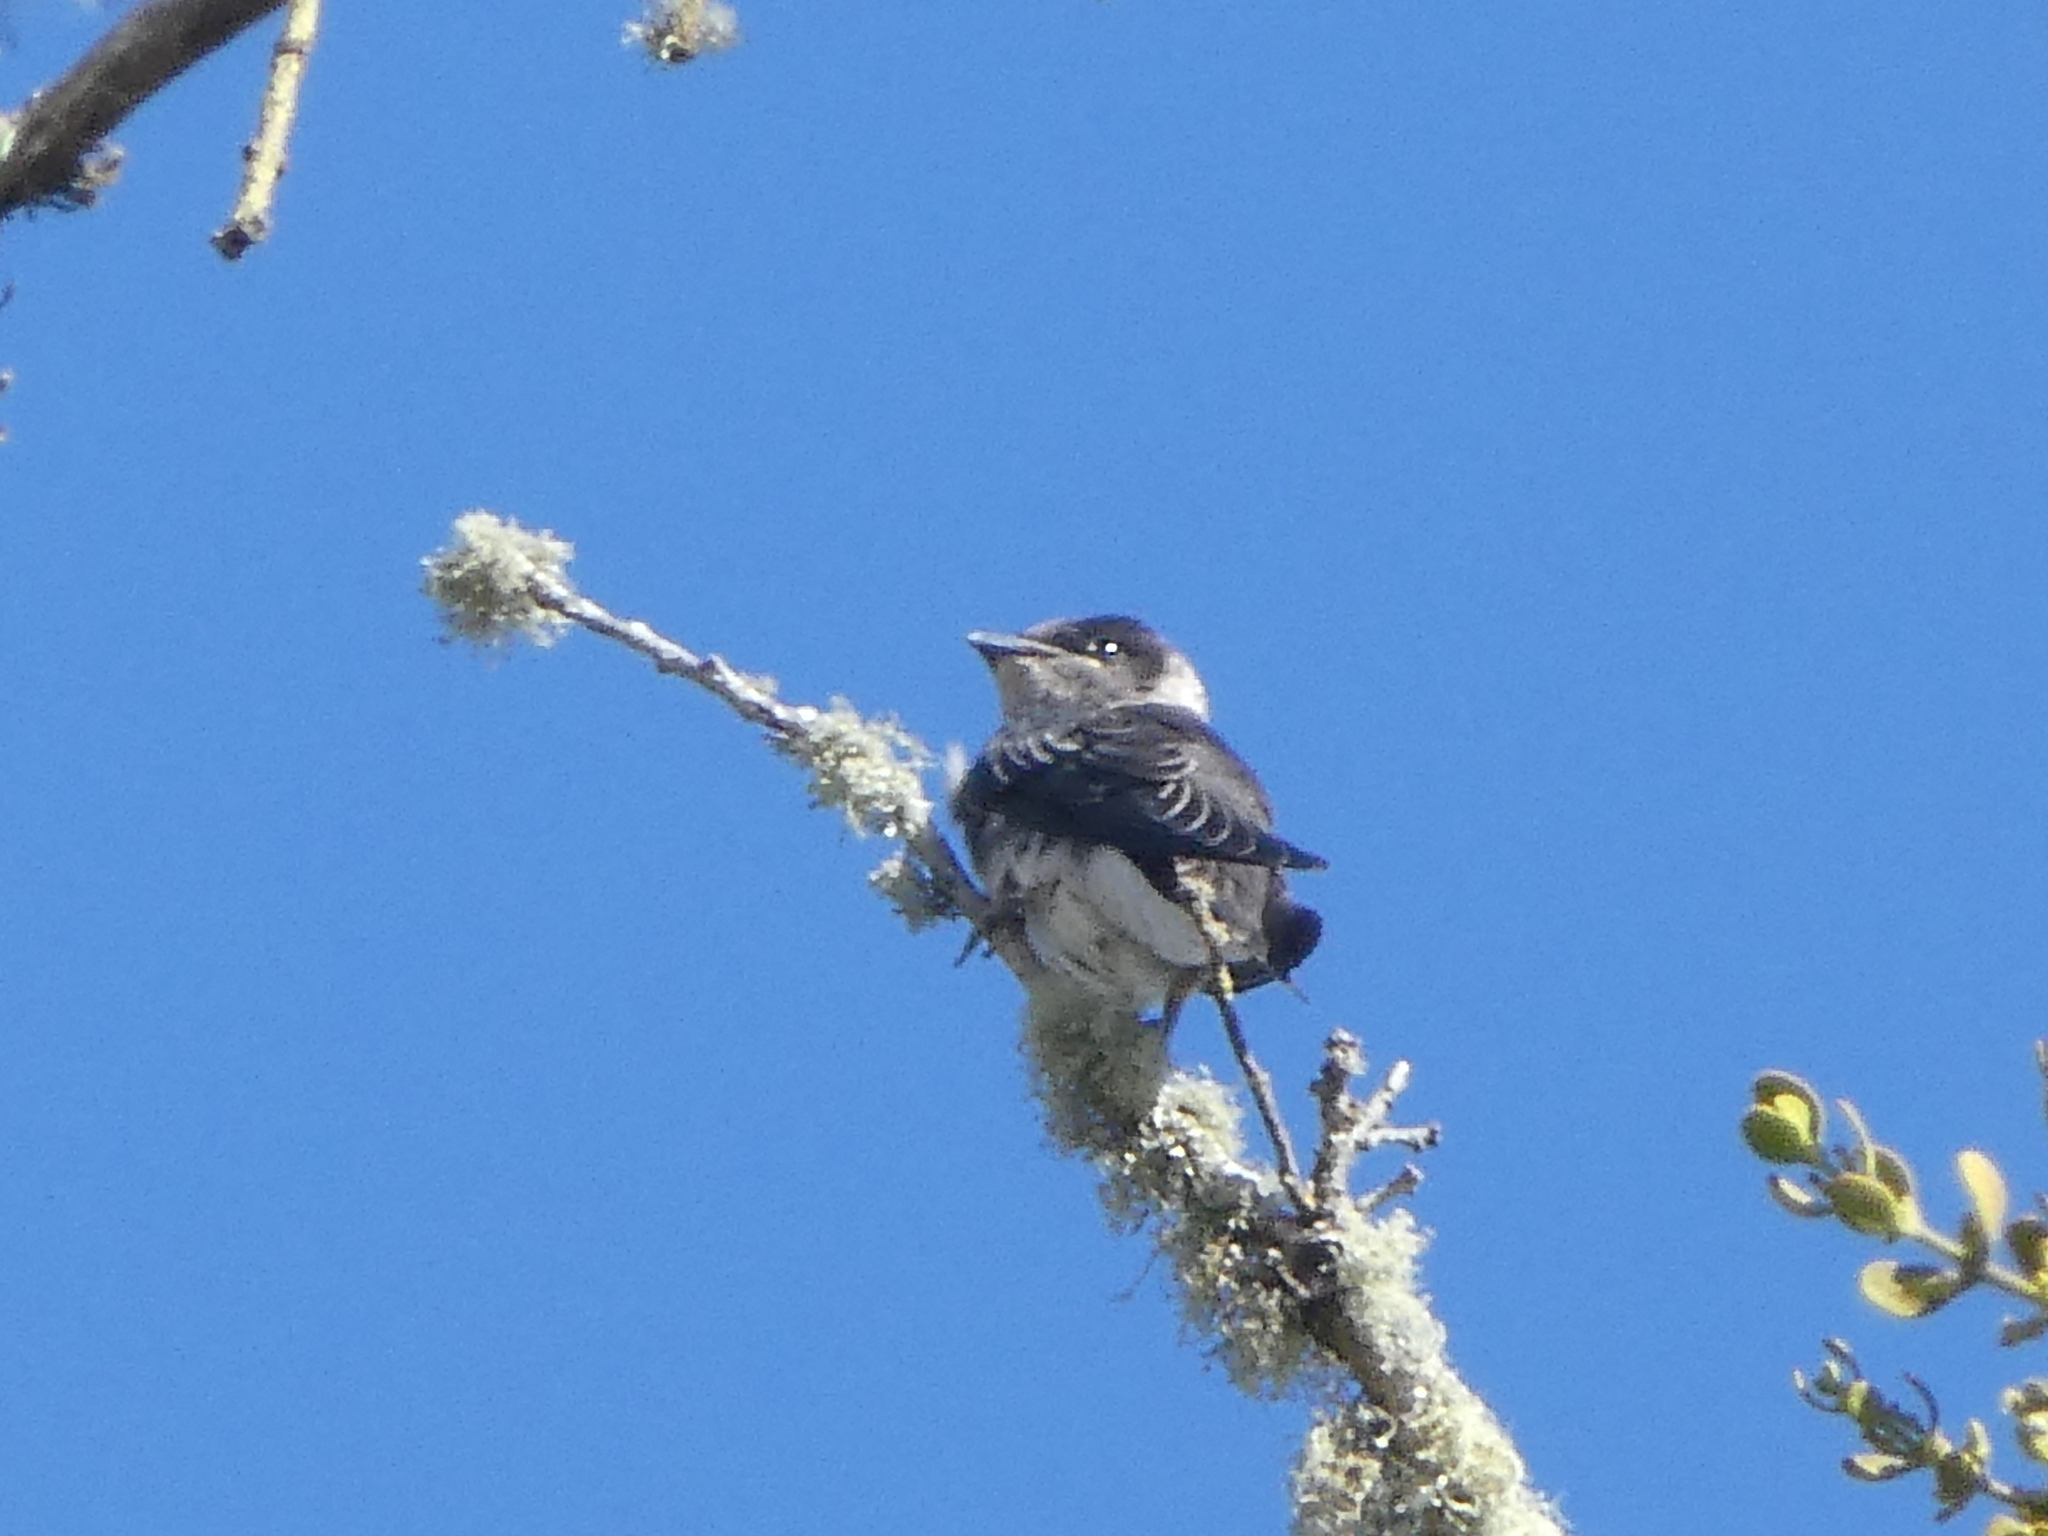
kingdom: Animalia
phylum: Chordata
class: Aves
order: Passeriformes
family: Hirundinidae
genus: Progne
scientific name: Progne subis
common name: Purple martin
